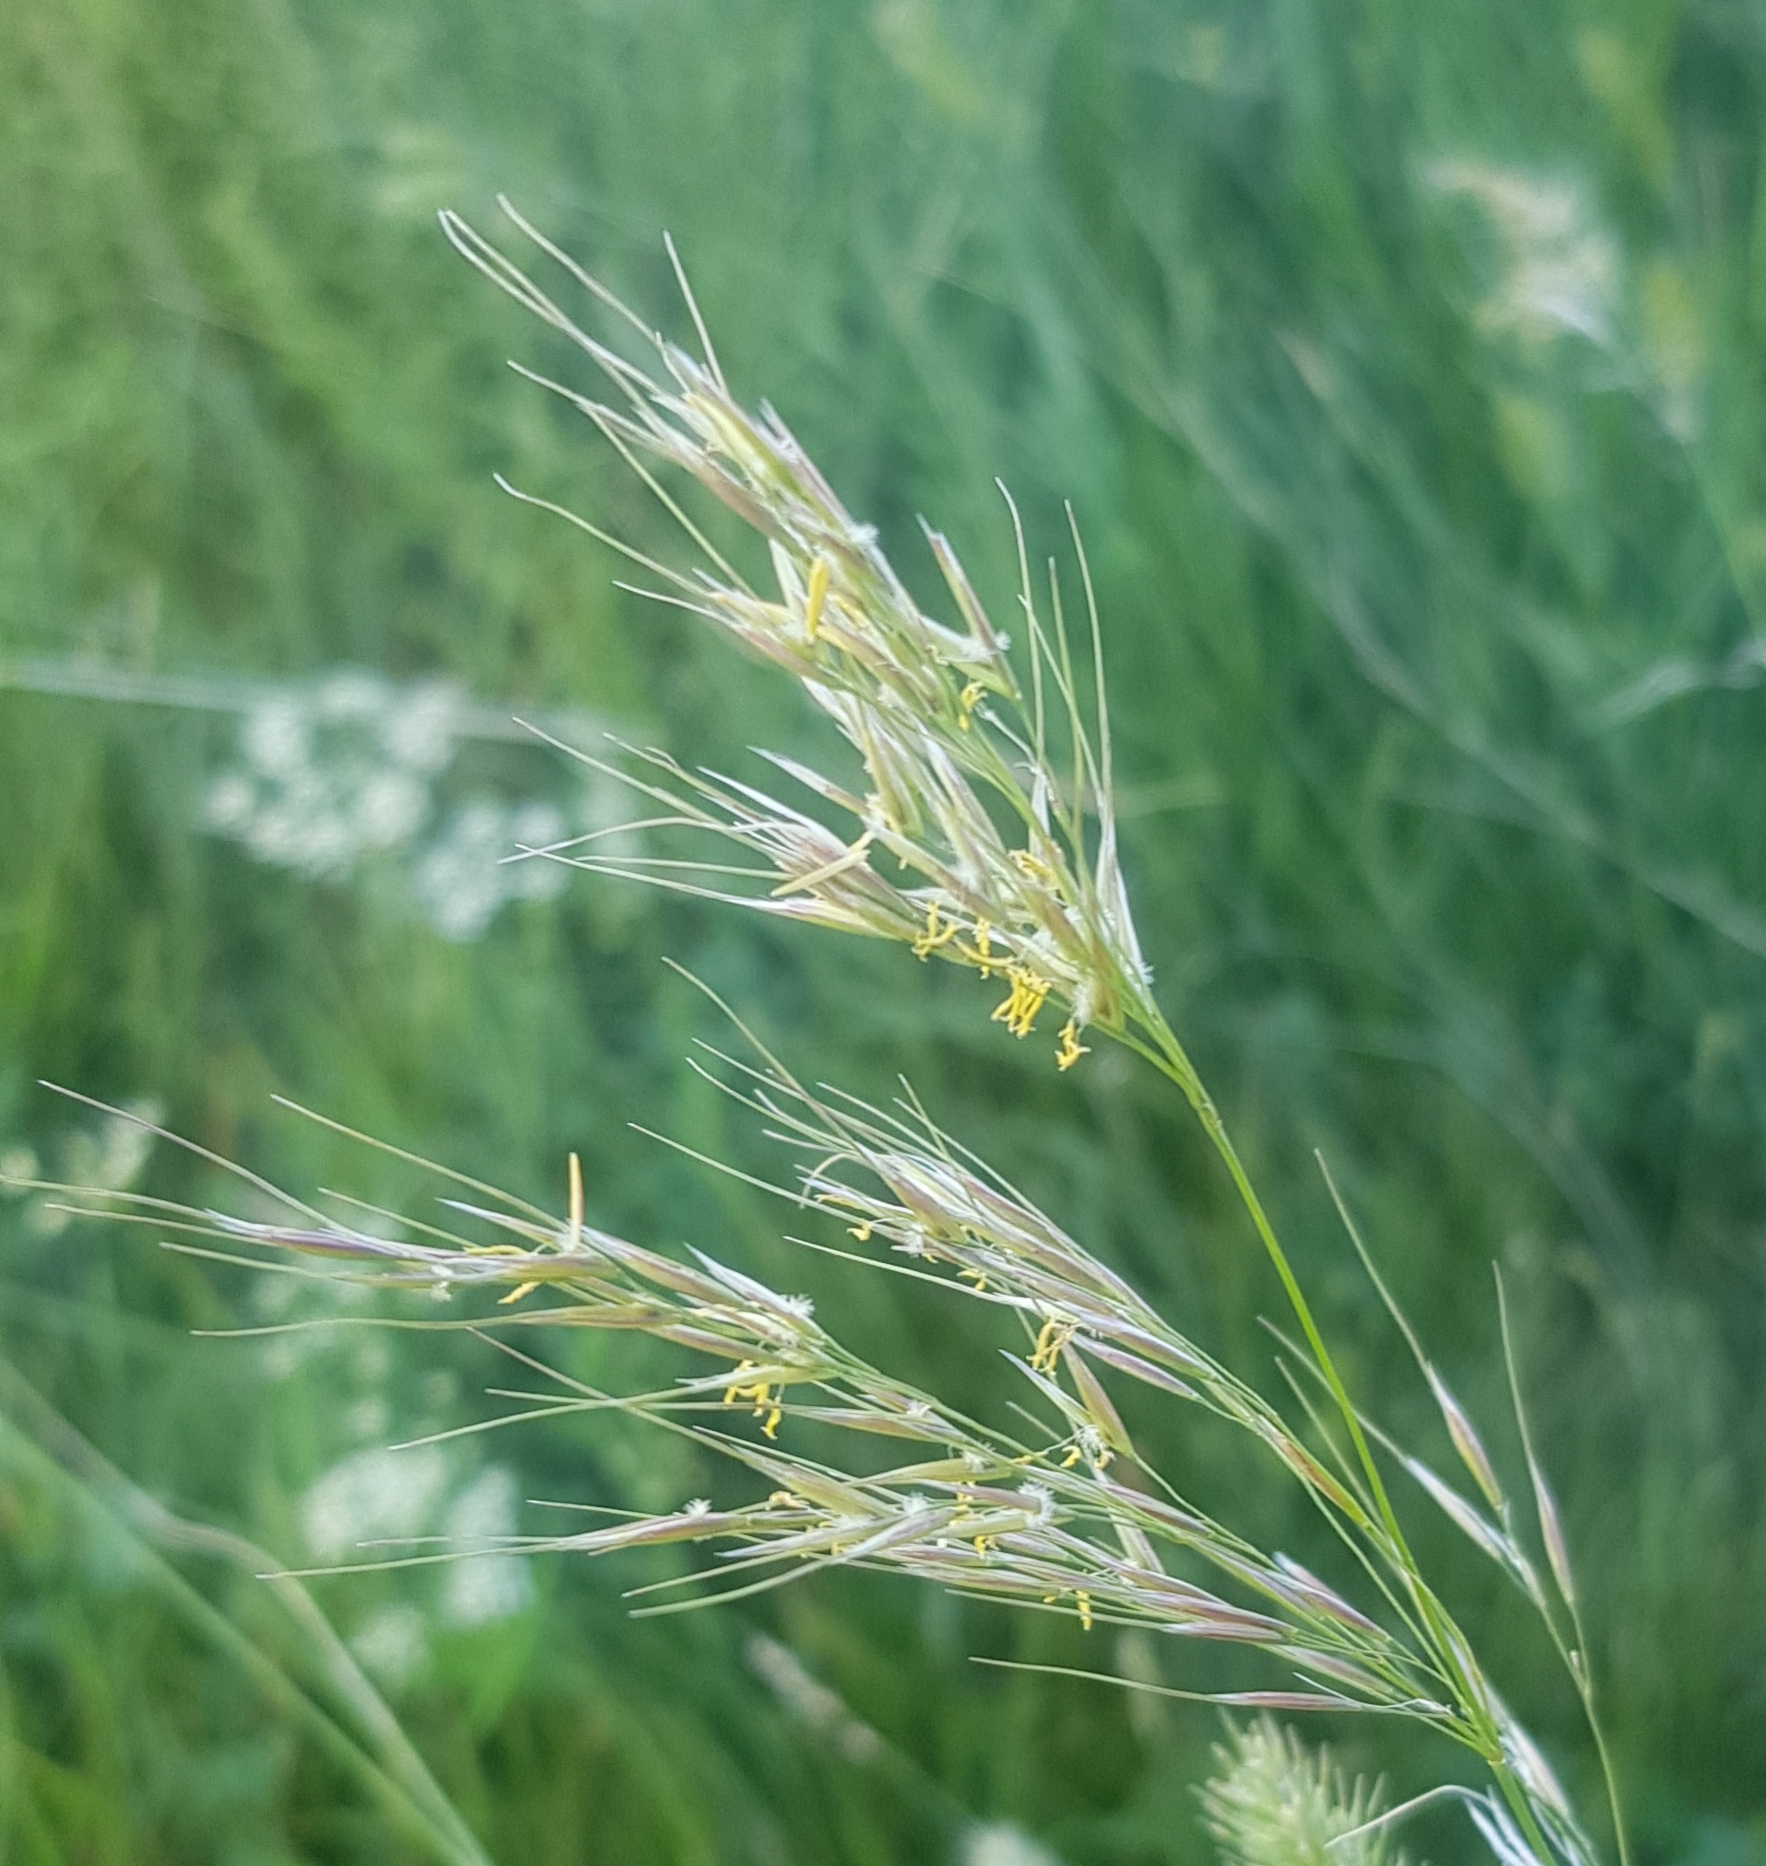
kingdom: Plantae
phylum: Tracheophyta
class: Liliopsida
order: Poales
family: Poaceae
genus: Achnatherum
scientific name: Achnatherum sibiricum
